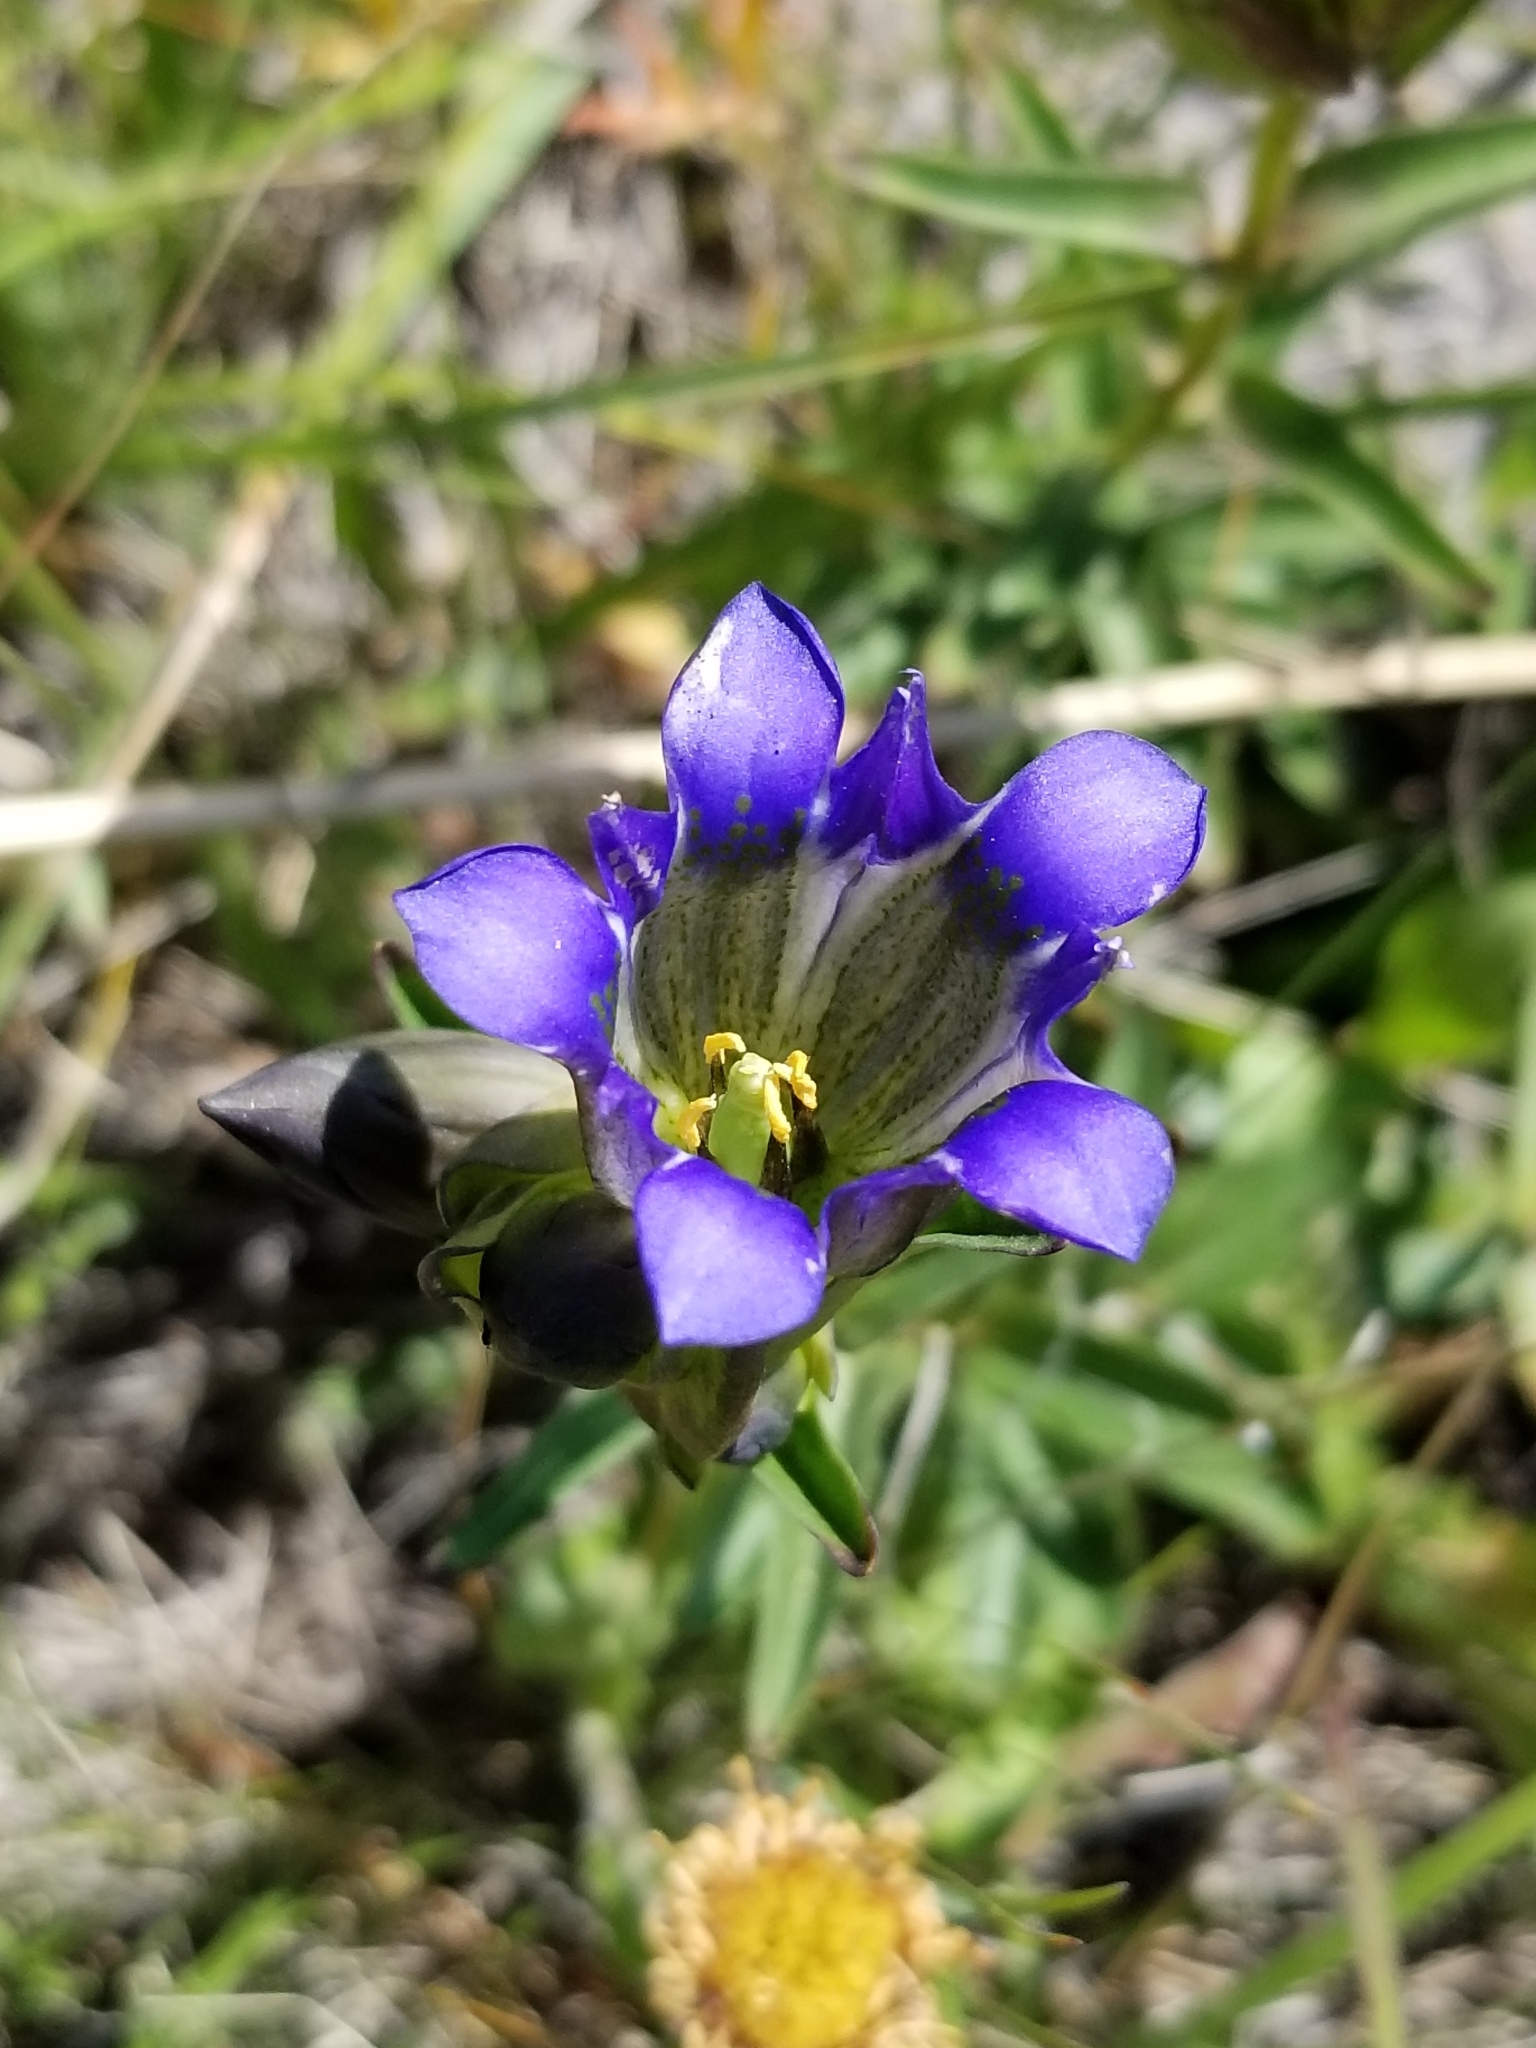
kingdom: Plantae
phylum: Tracheophyta
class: Magnoliopsida
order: Gentianales
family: Gentianaceae
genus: Gentiana
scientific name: Gentiana parryi
